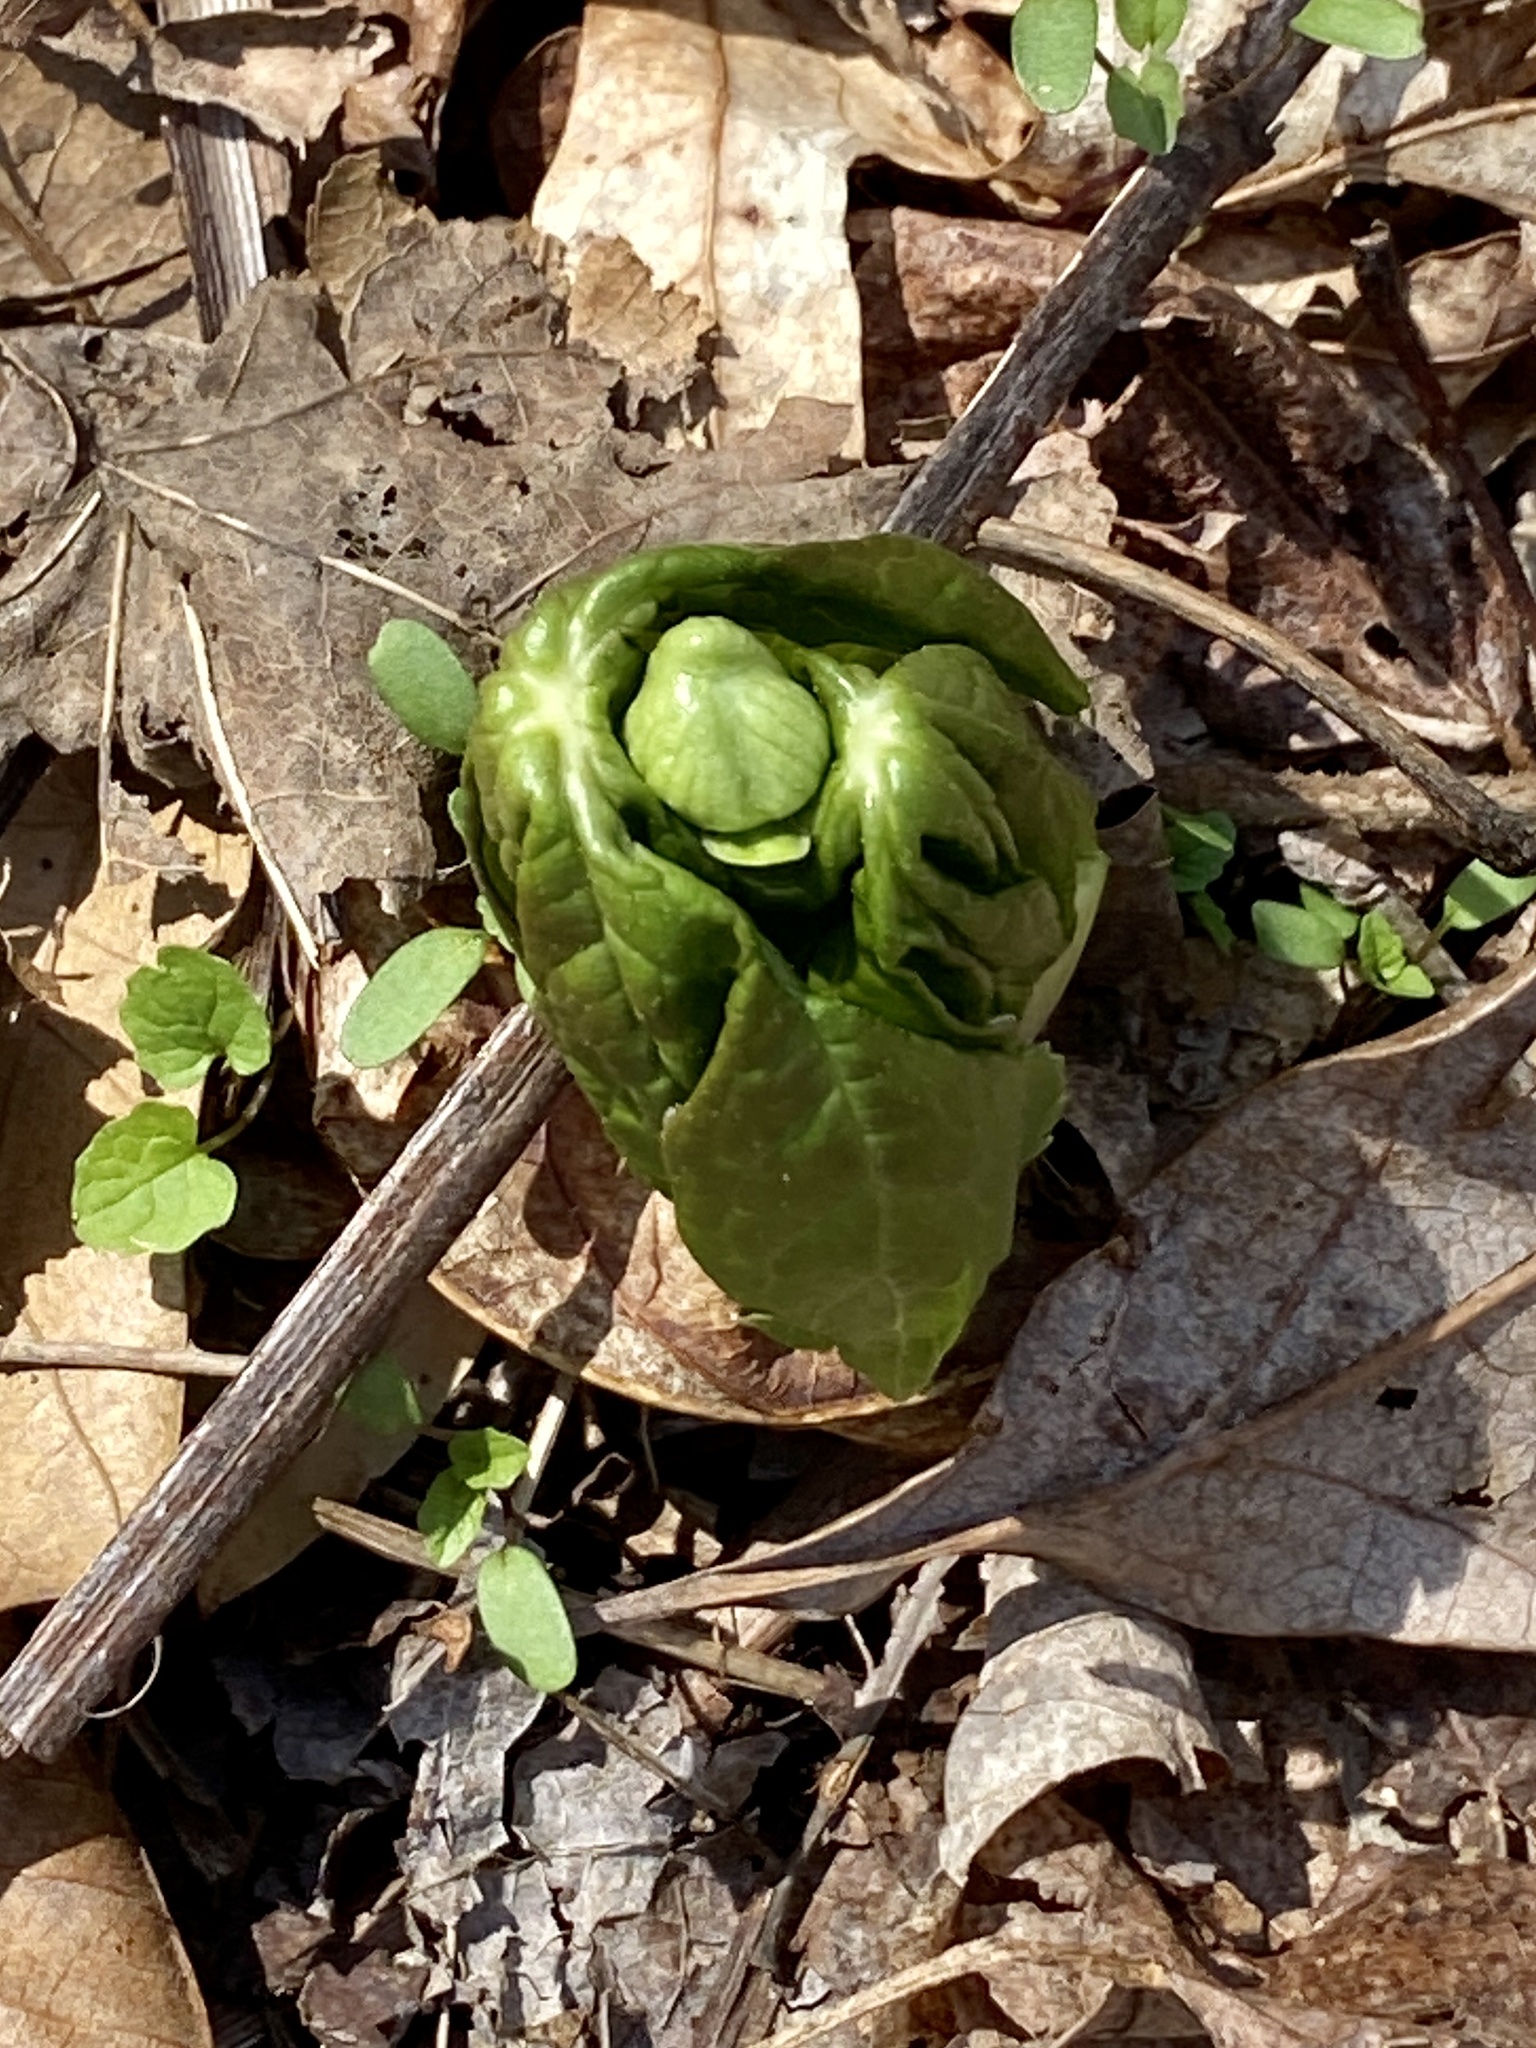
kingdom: Plantae
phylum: Tracheophyta
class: Magnoliopsida
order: Ranunculales
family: Berberidaceae
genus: Podophyllum
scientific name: Podophyllum peltatum
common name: Wild mandrake
